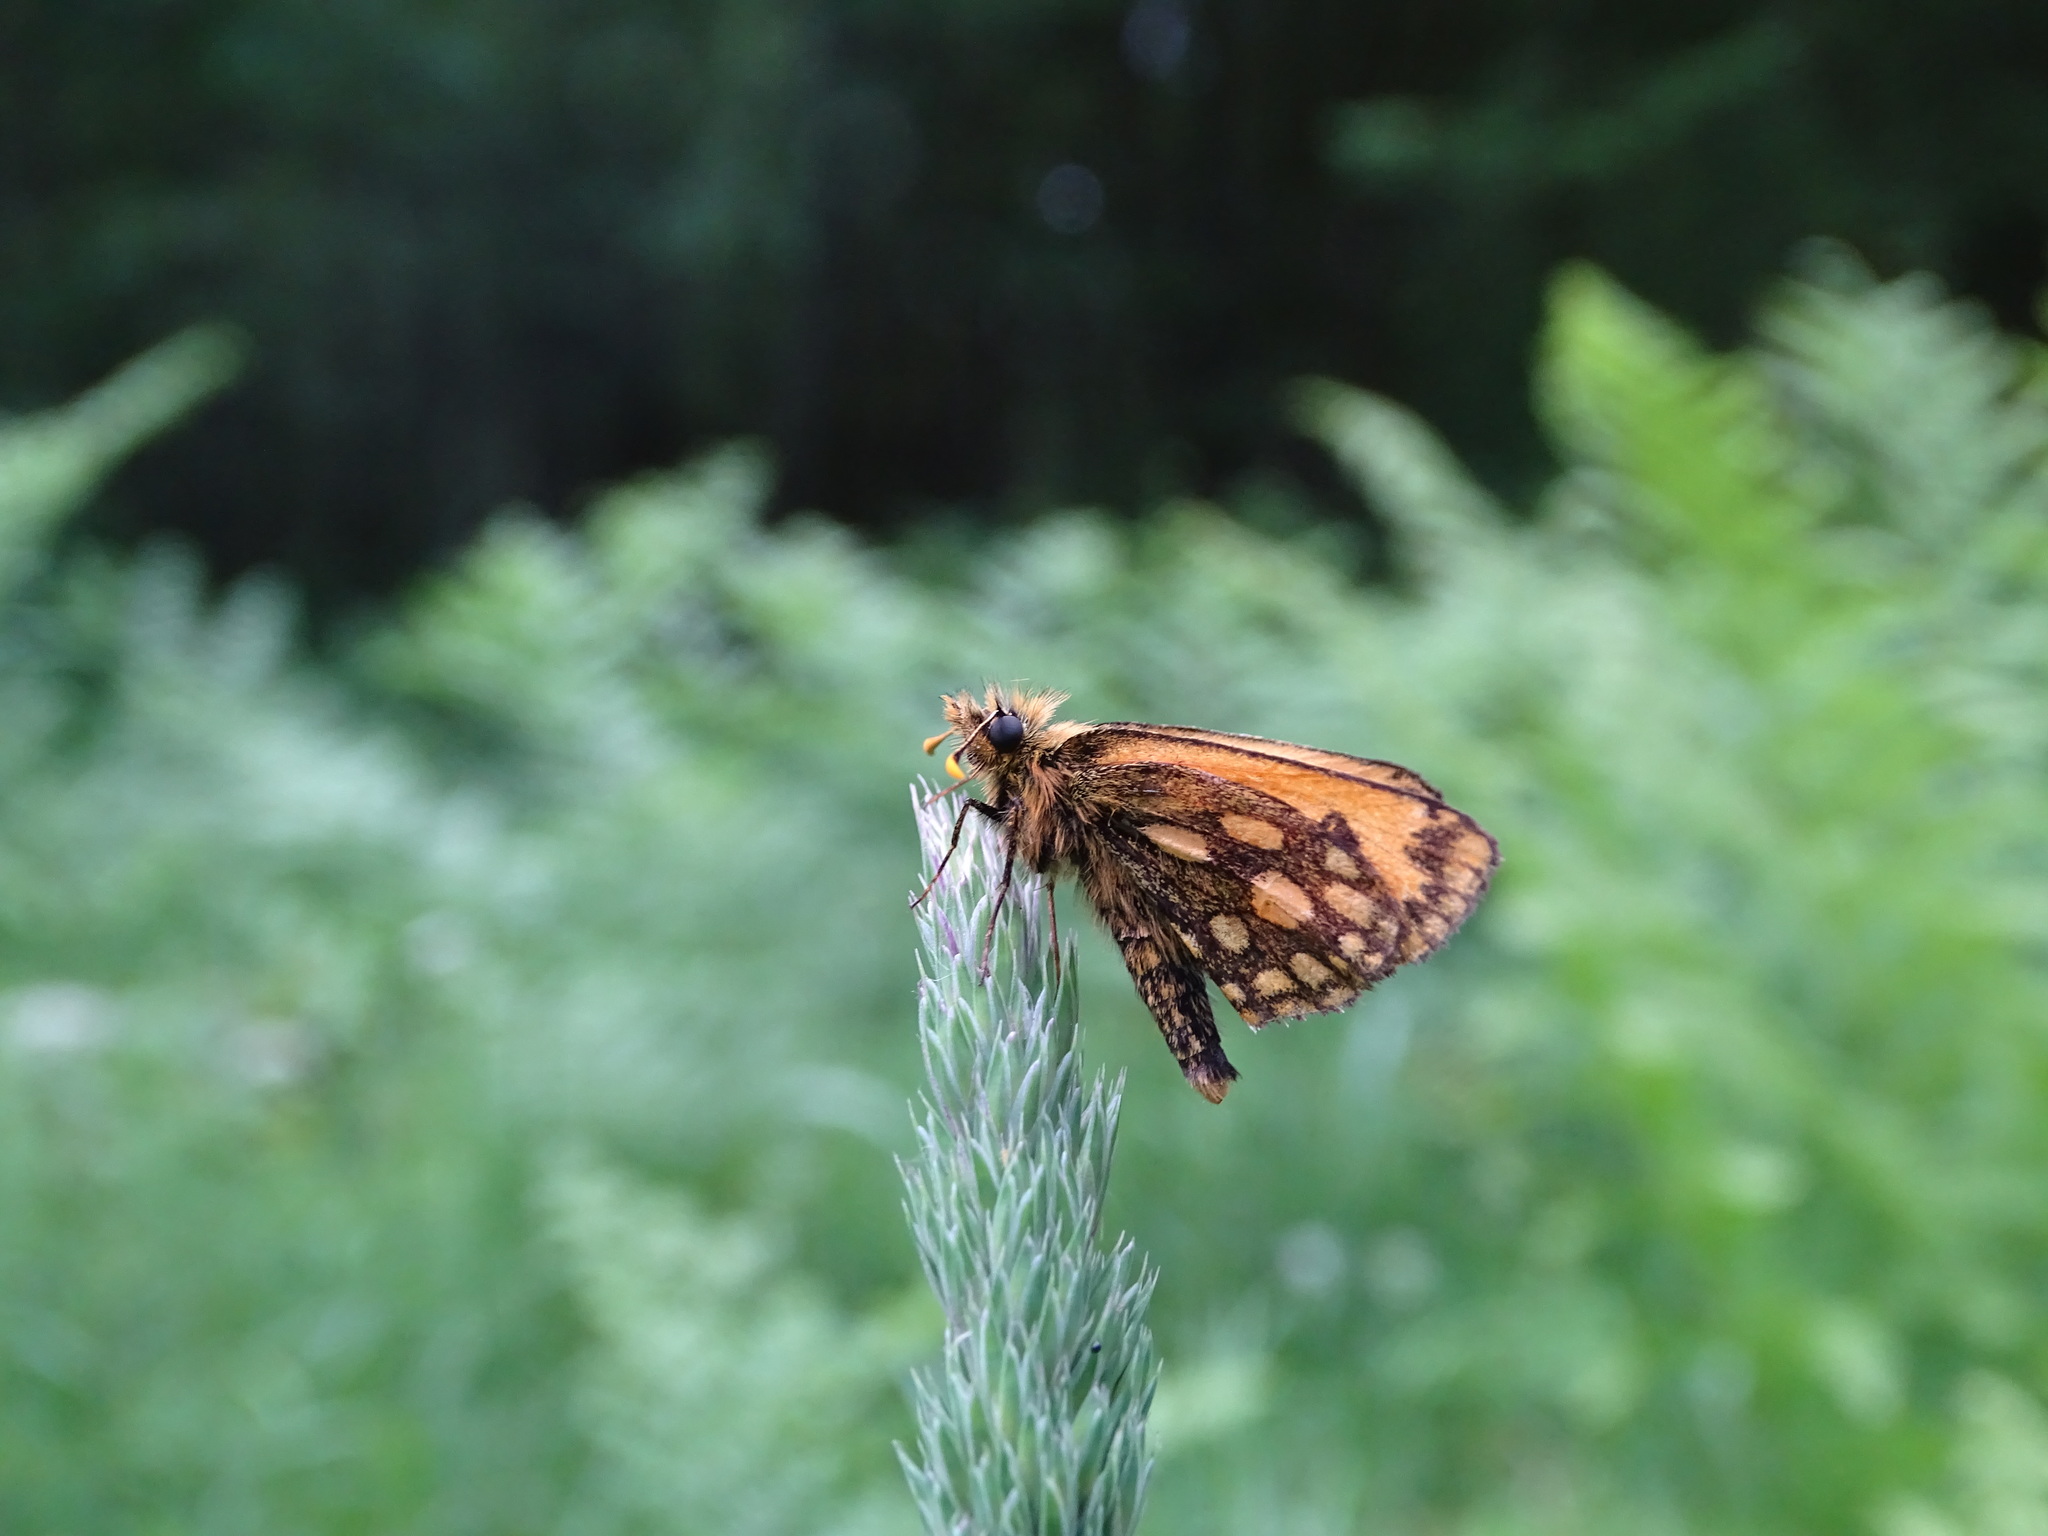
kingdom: Animalia
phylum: Arthropoda
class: Insecta
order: Lepidoptera
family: Hesperiidae
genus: Carterocephalus
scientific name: Carterocephalus silvicola
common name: Northern chequered skipper
